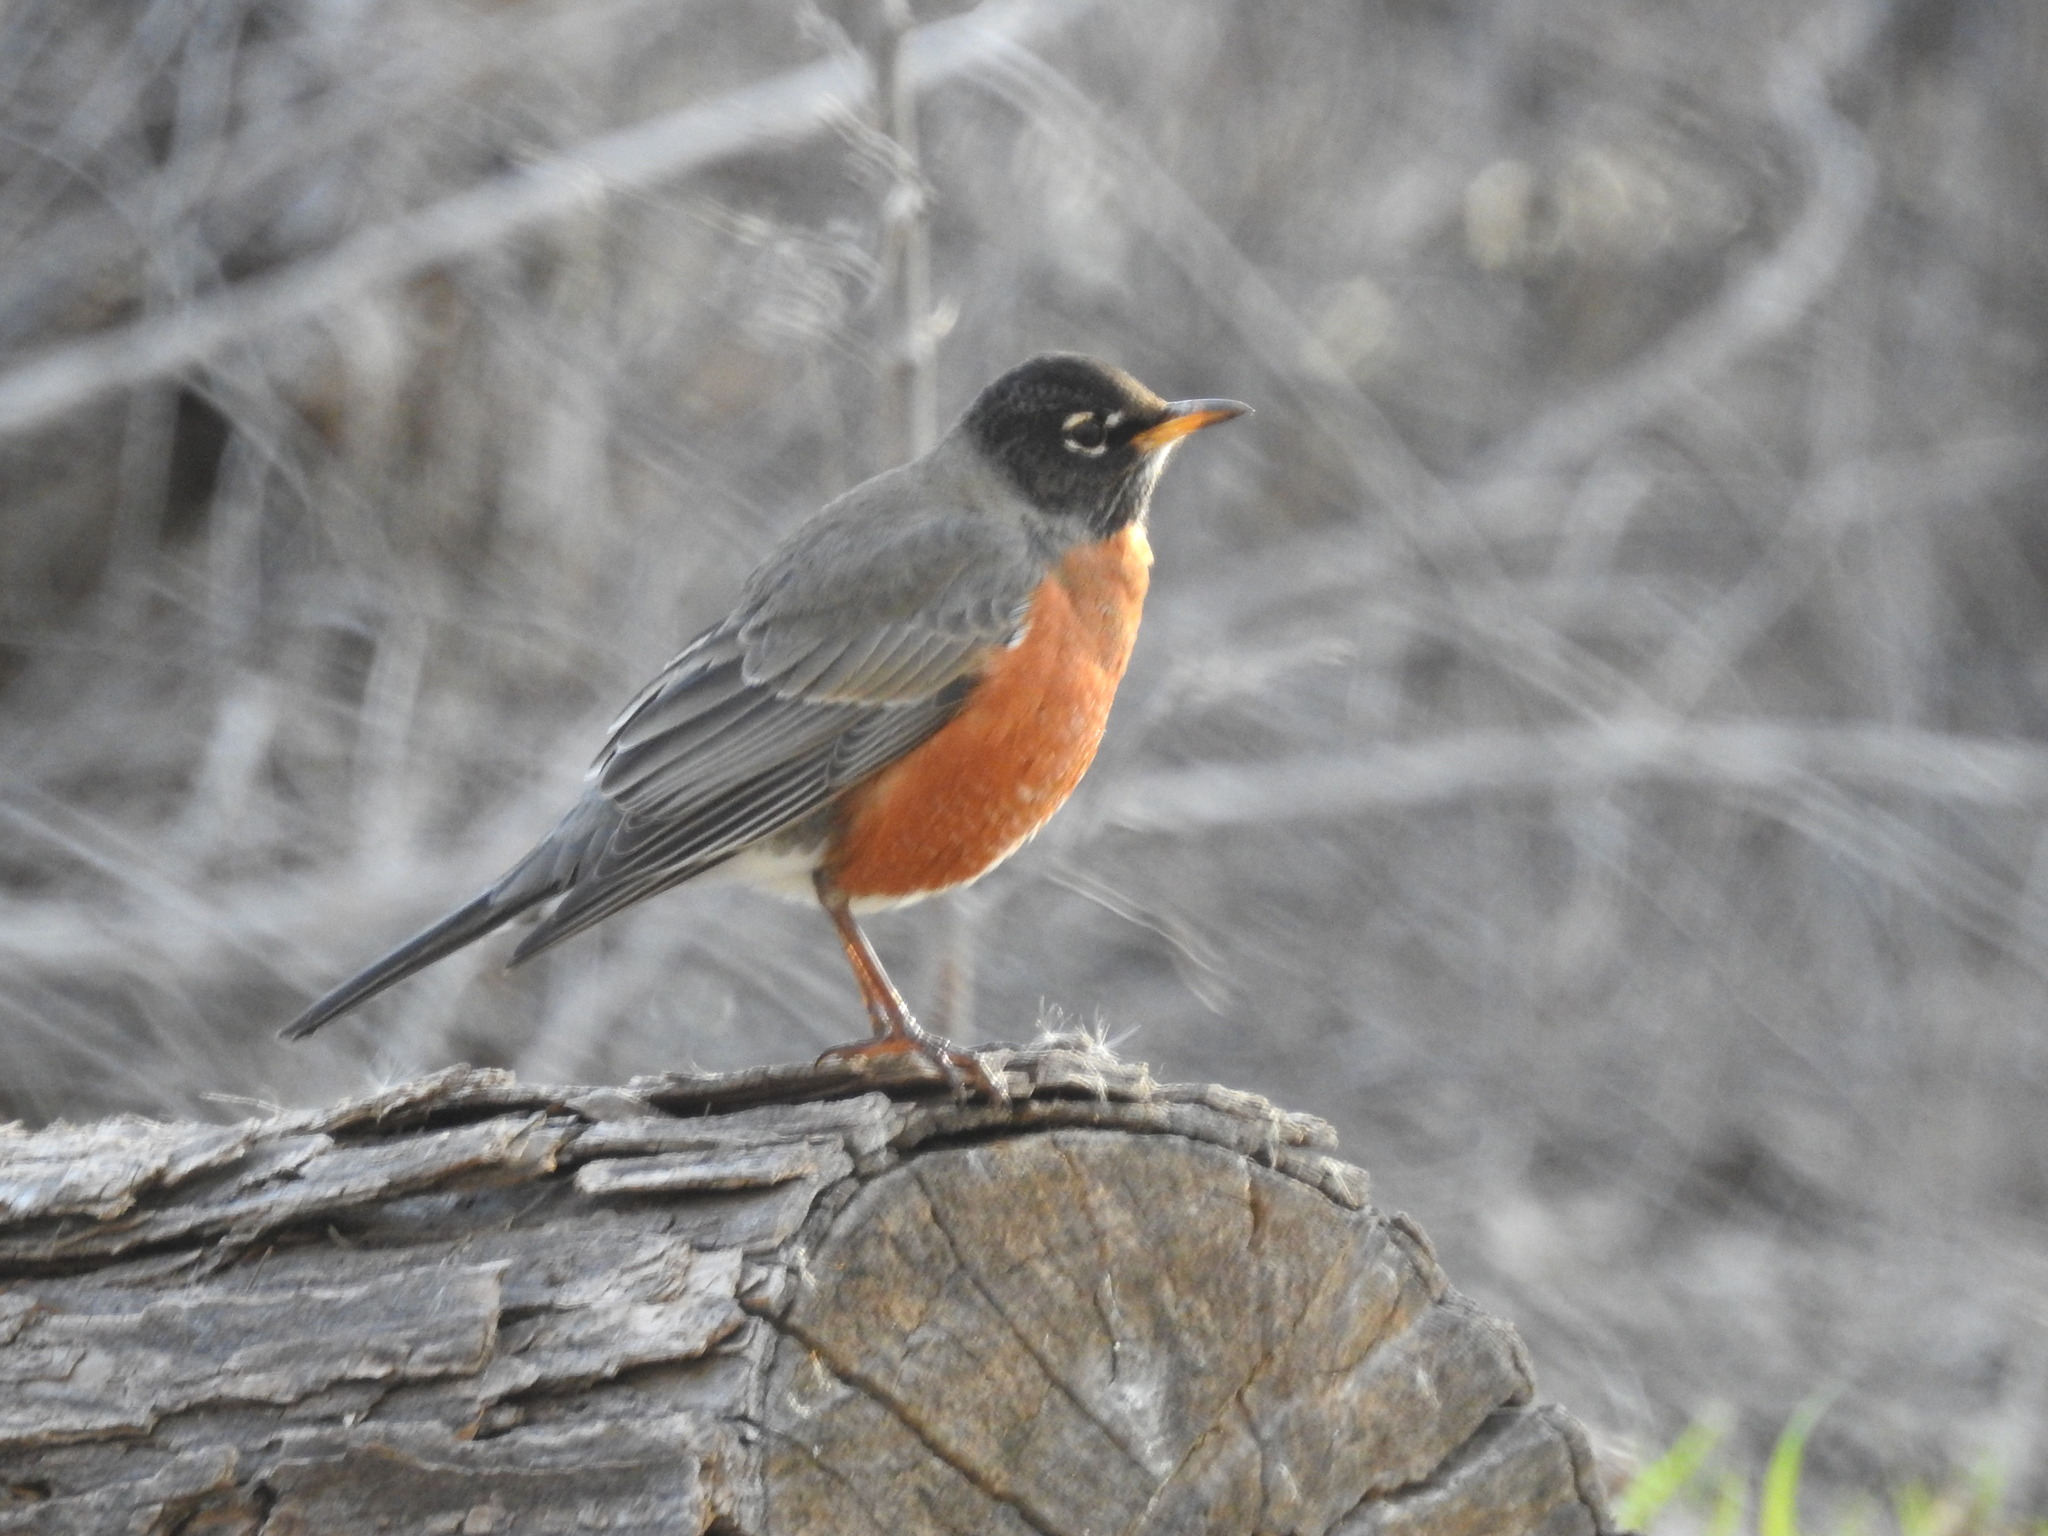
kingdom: Animalia
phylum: Chordata
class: Aves
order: Passeriformes
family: Turdidae
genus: Turdus
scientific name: Turdus migratorius
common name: American robin
